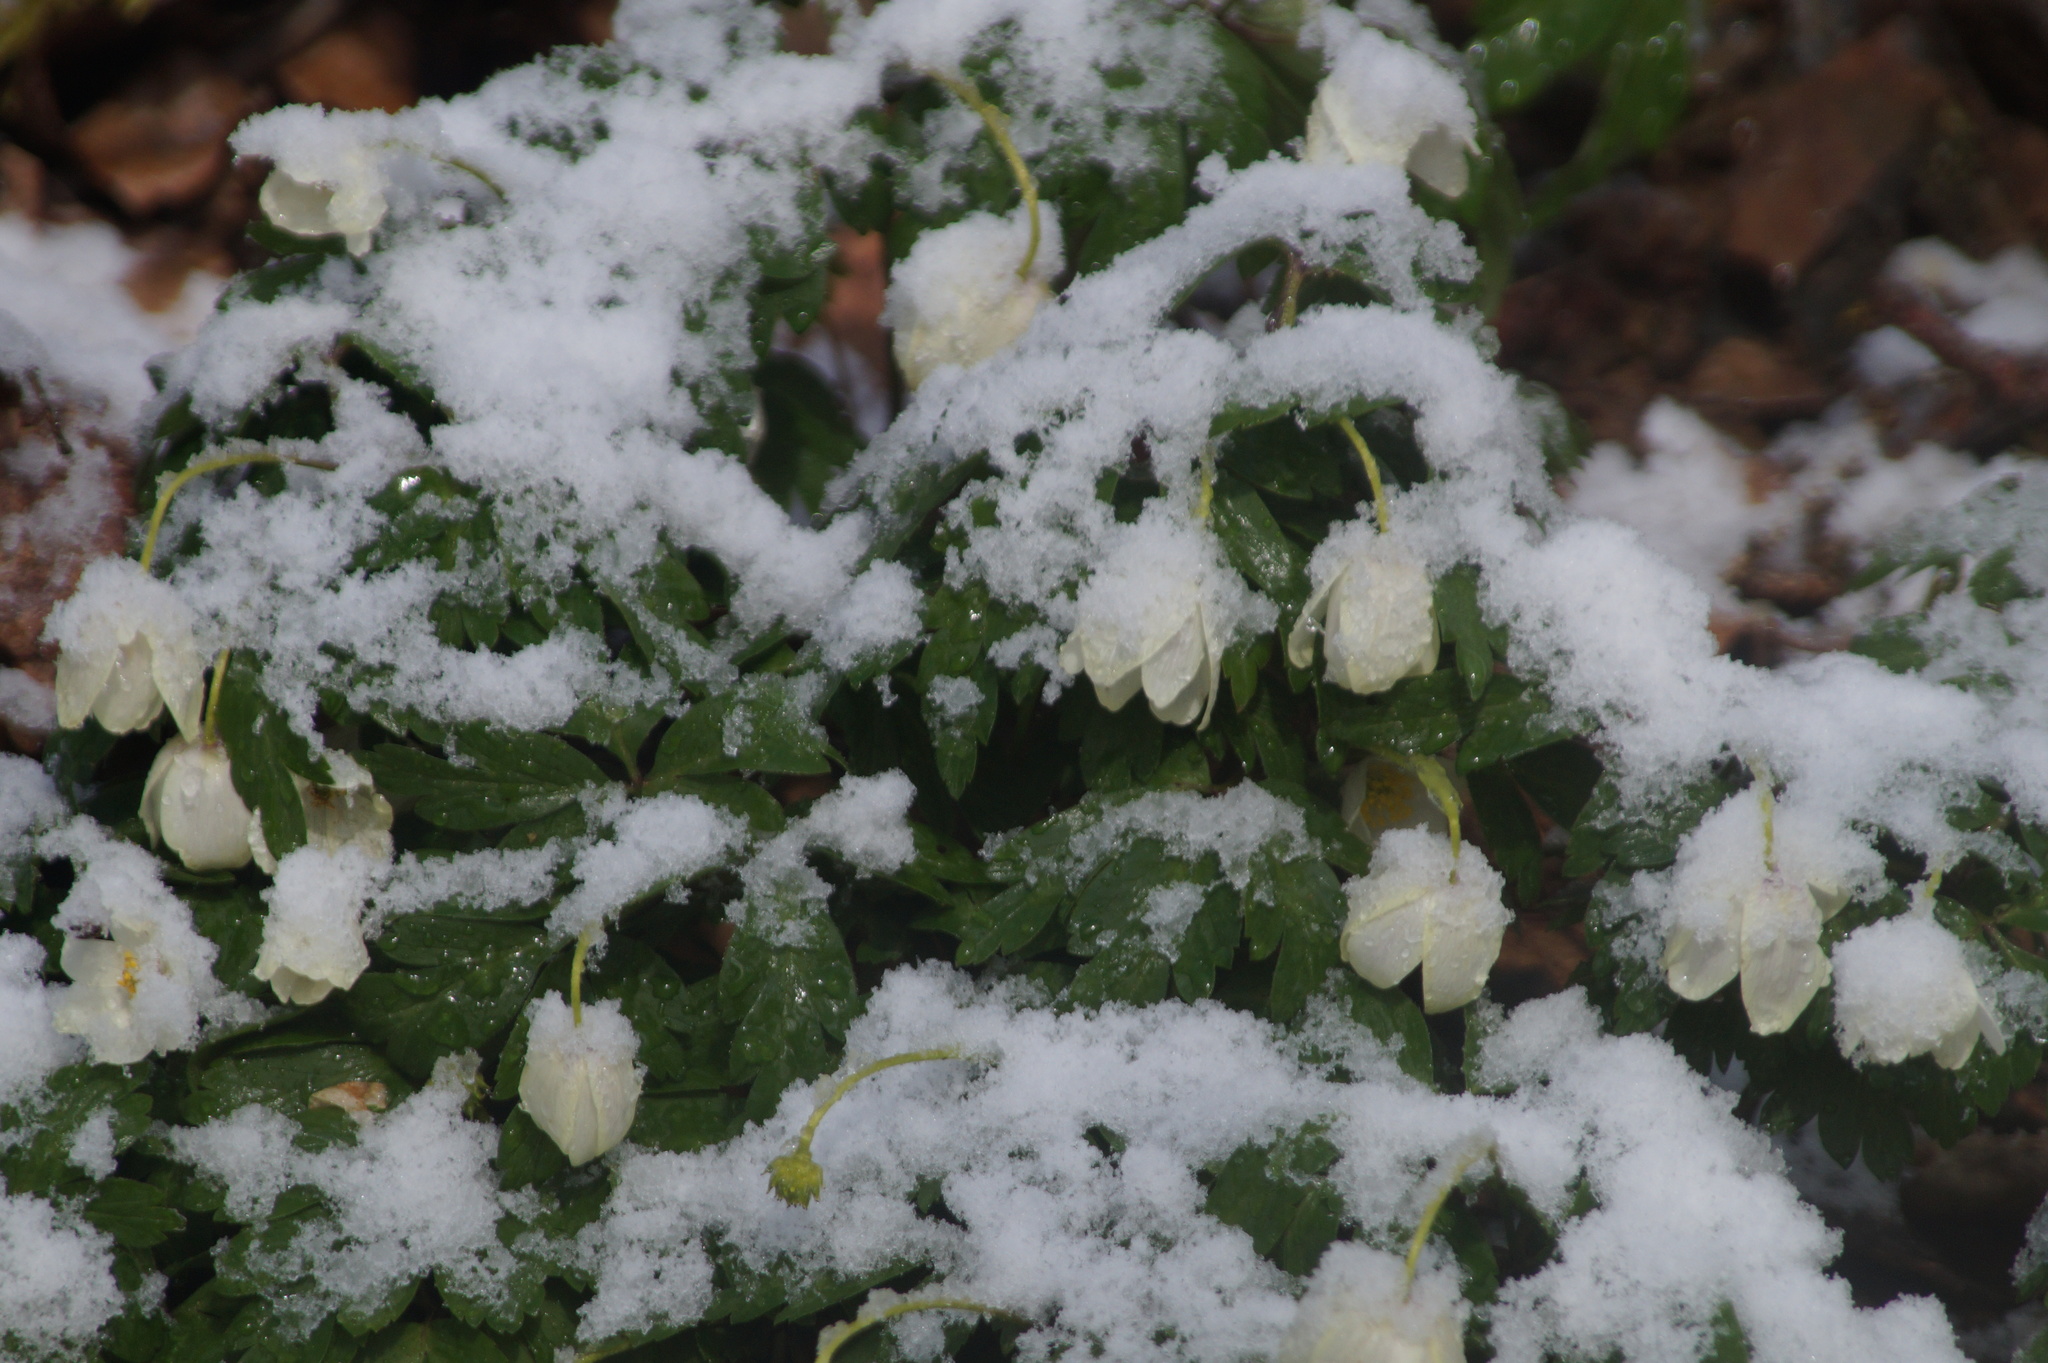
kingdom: Plantae
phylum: Tracheophyta
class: Magnoliopsida
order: Ranunculales
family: Ranunculaceae
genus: Anemone
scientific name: Anemone nemorosa
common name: Wood anemone
